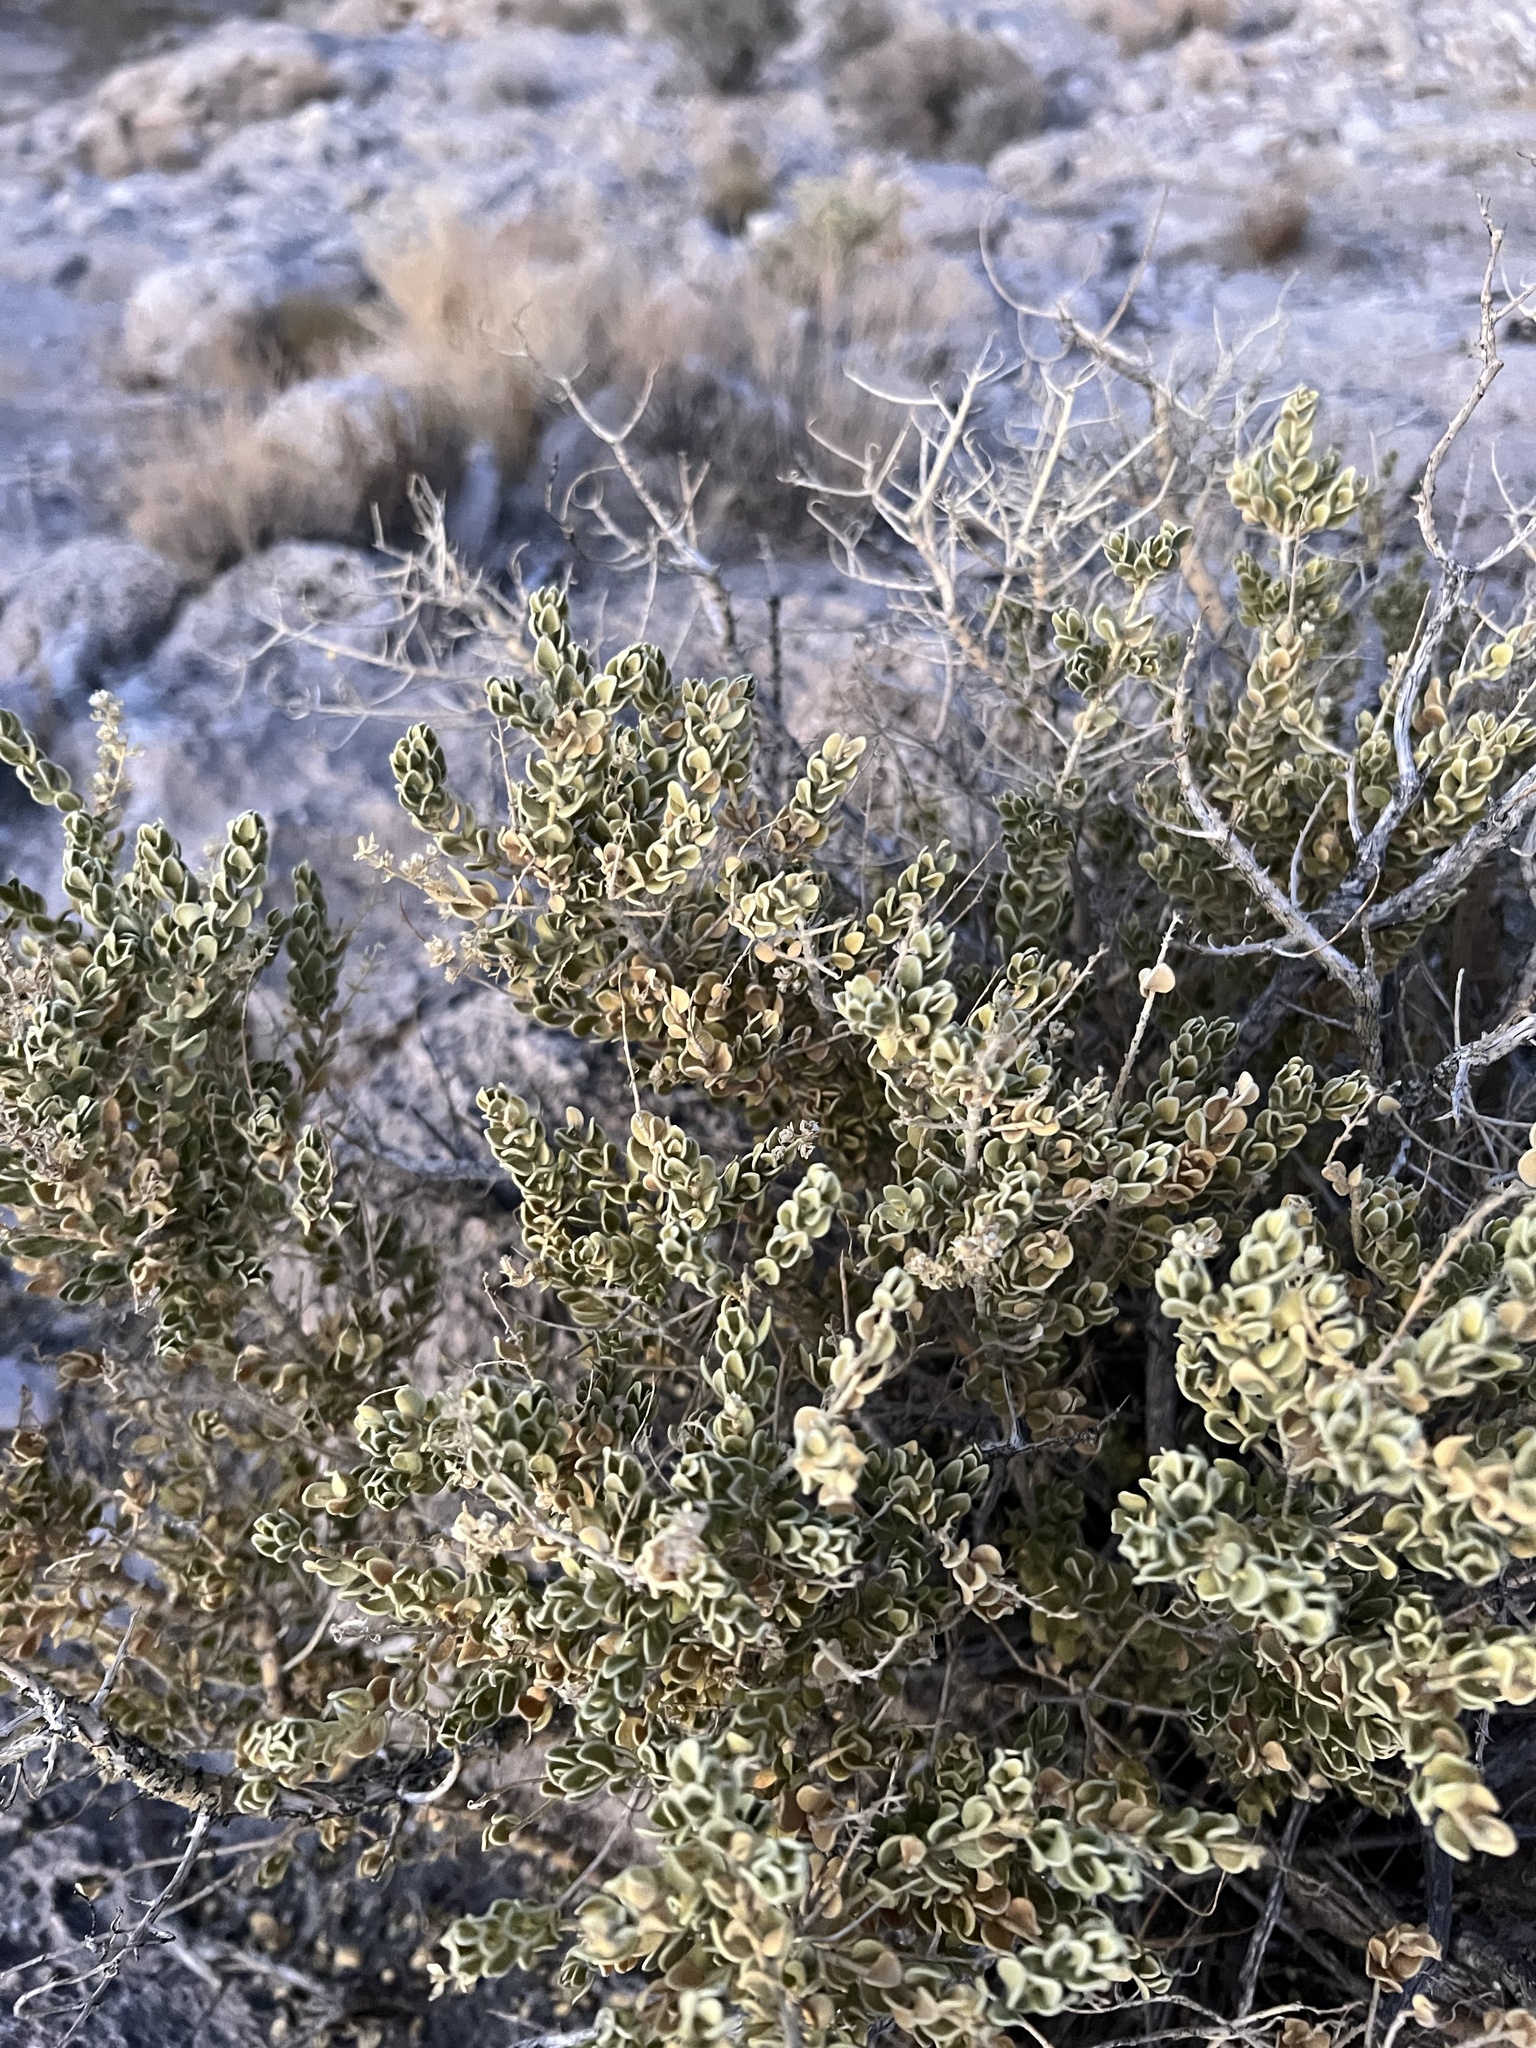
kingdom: Plantae
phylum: Tracheophyta
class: Magnoliopsida
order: Celastrales
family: Celastraceae
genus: Mortonia
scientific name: Mortonia utahensis
